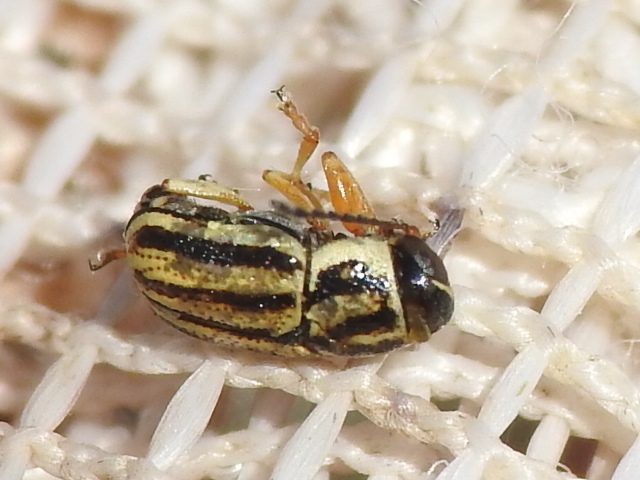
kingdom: Animalia
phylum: Arthropoda
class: Insecta
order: Coleoptera
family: Chrysomelidae
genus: Pachybrachis
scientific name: Pachybrachis dubiosus
